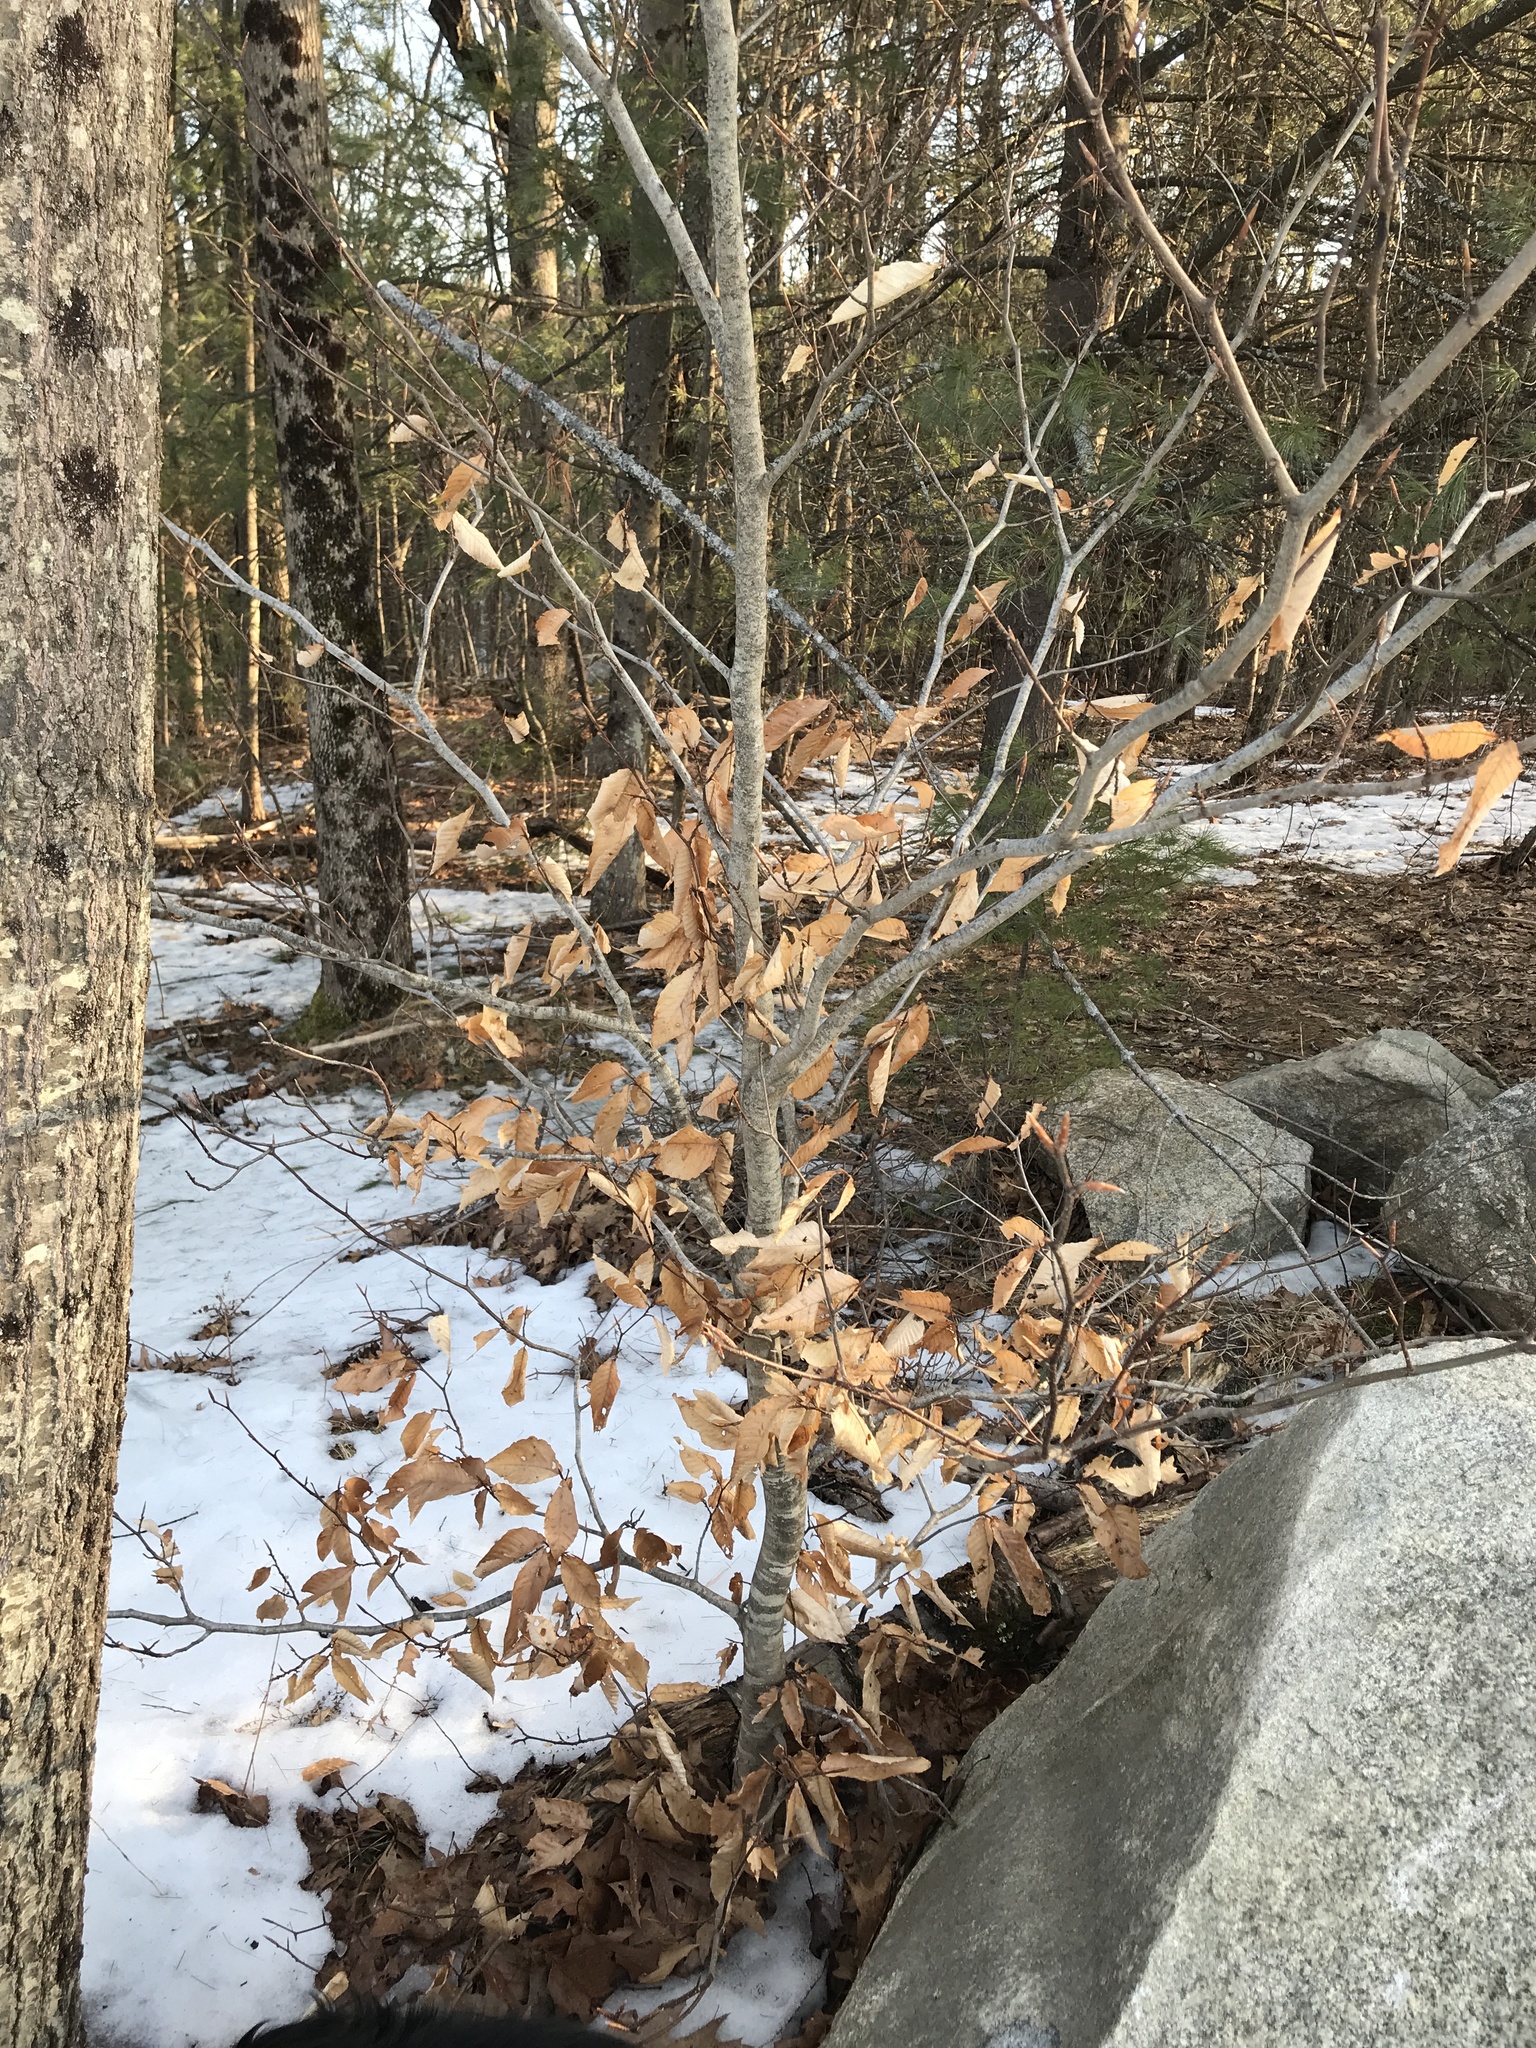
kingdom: Plantae
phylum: Tracheophyta
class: Magnoliopsida
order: Fagales
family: Fagaceae
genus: Fagus
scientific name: Fagus grandifolia
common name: American beech
